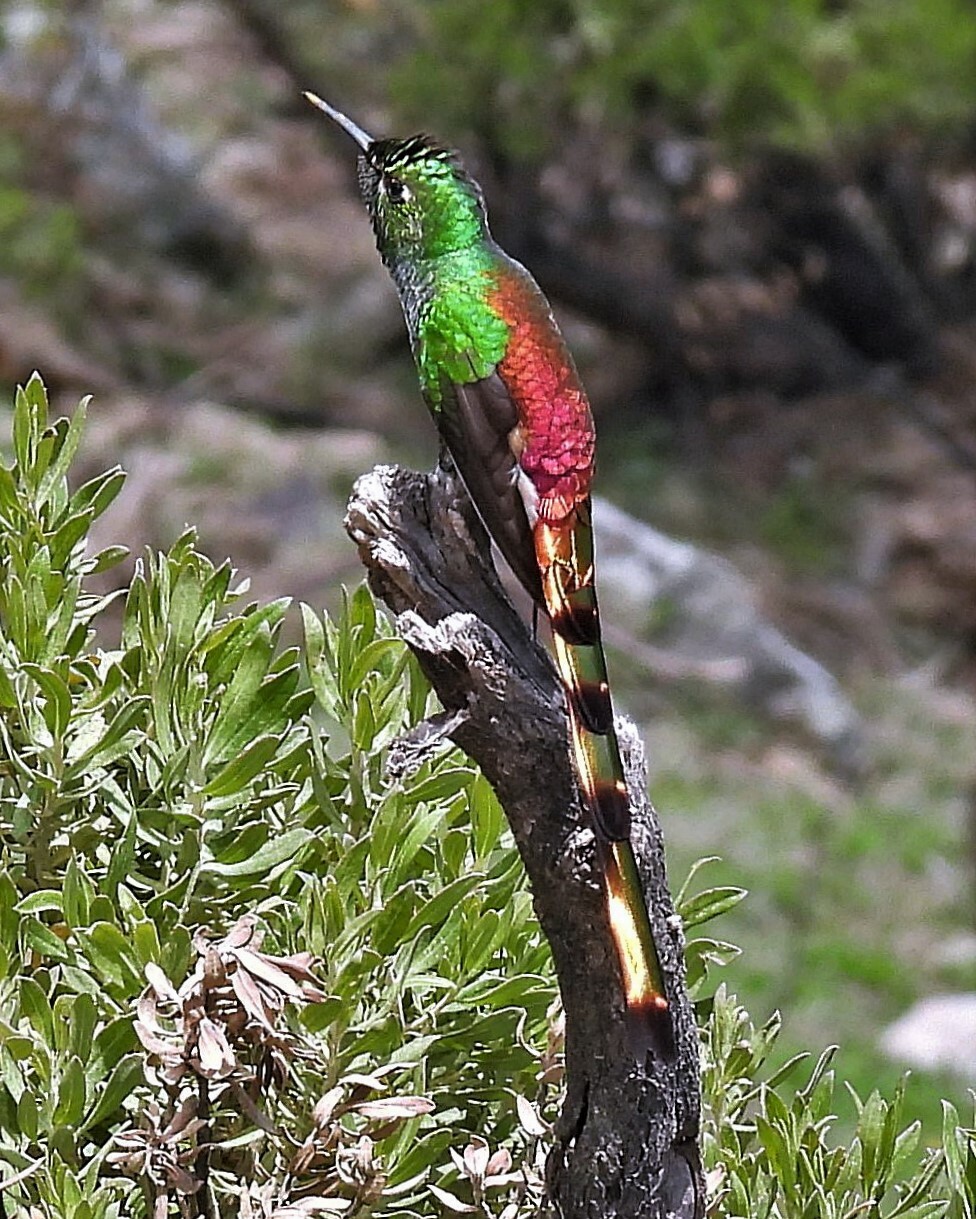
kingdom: Animalia
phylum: Chordata
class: Aves
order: Apodiformes
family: Trochilidae
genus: Sappho
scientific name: Sappho sparganurus
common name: Red-tailed comet
